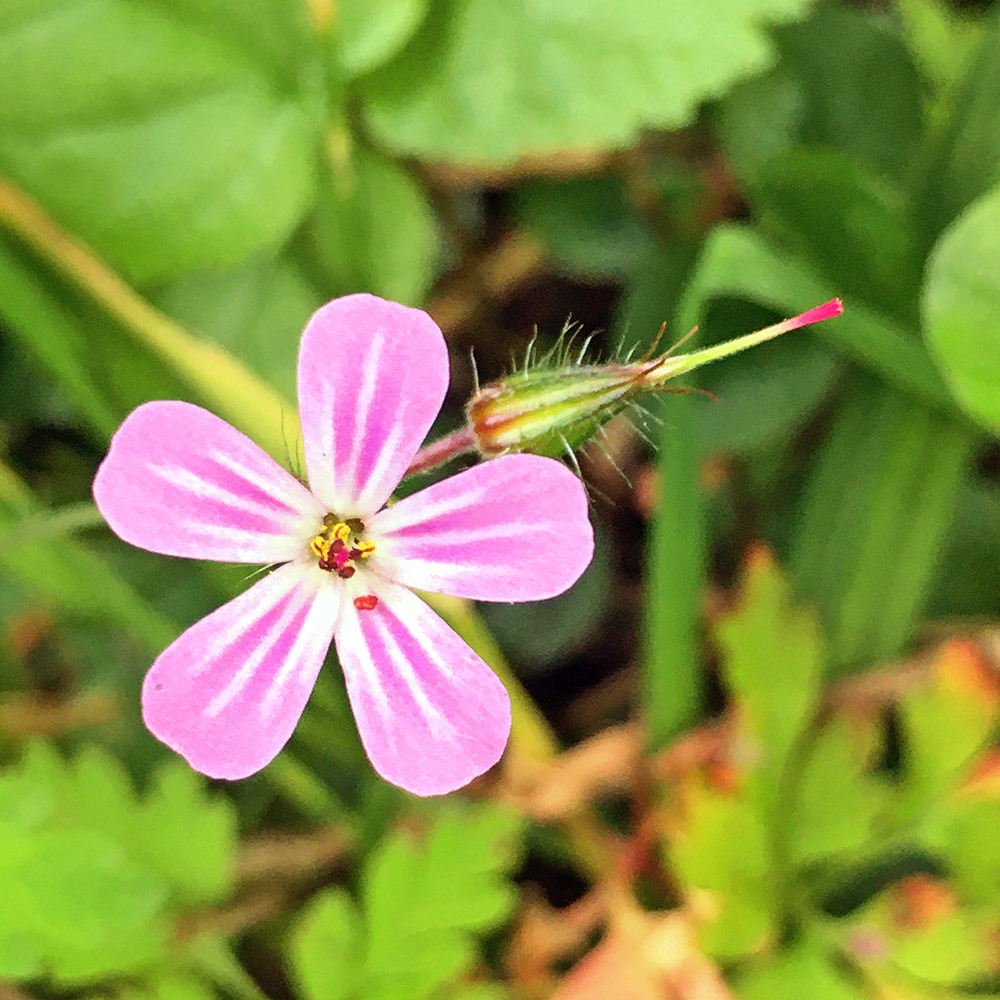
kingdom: Plantae
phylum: Tracheophyta
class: Magnoliopsida
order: Geraniales
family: Geraniaceae
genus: Geranium
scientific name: Geranium robertianum
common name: Herb-robert
